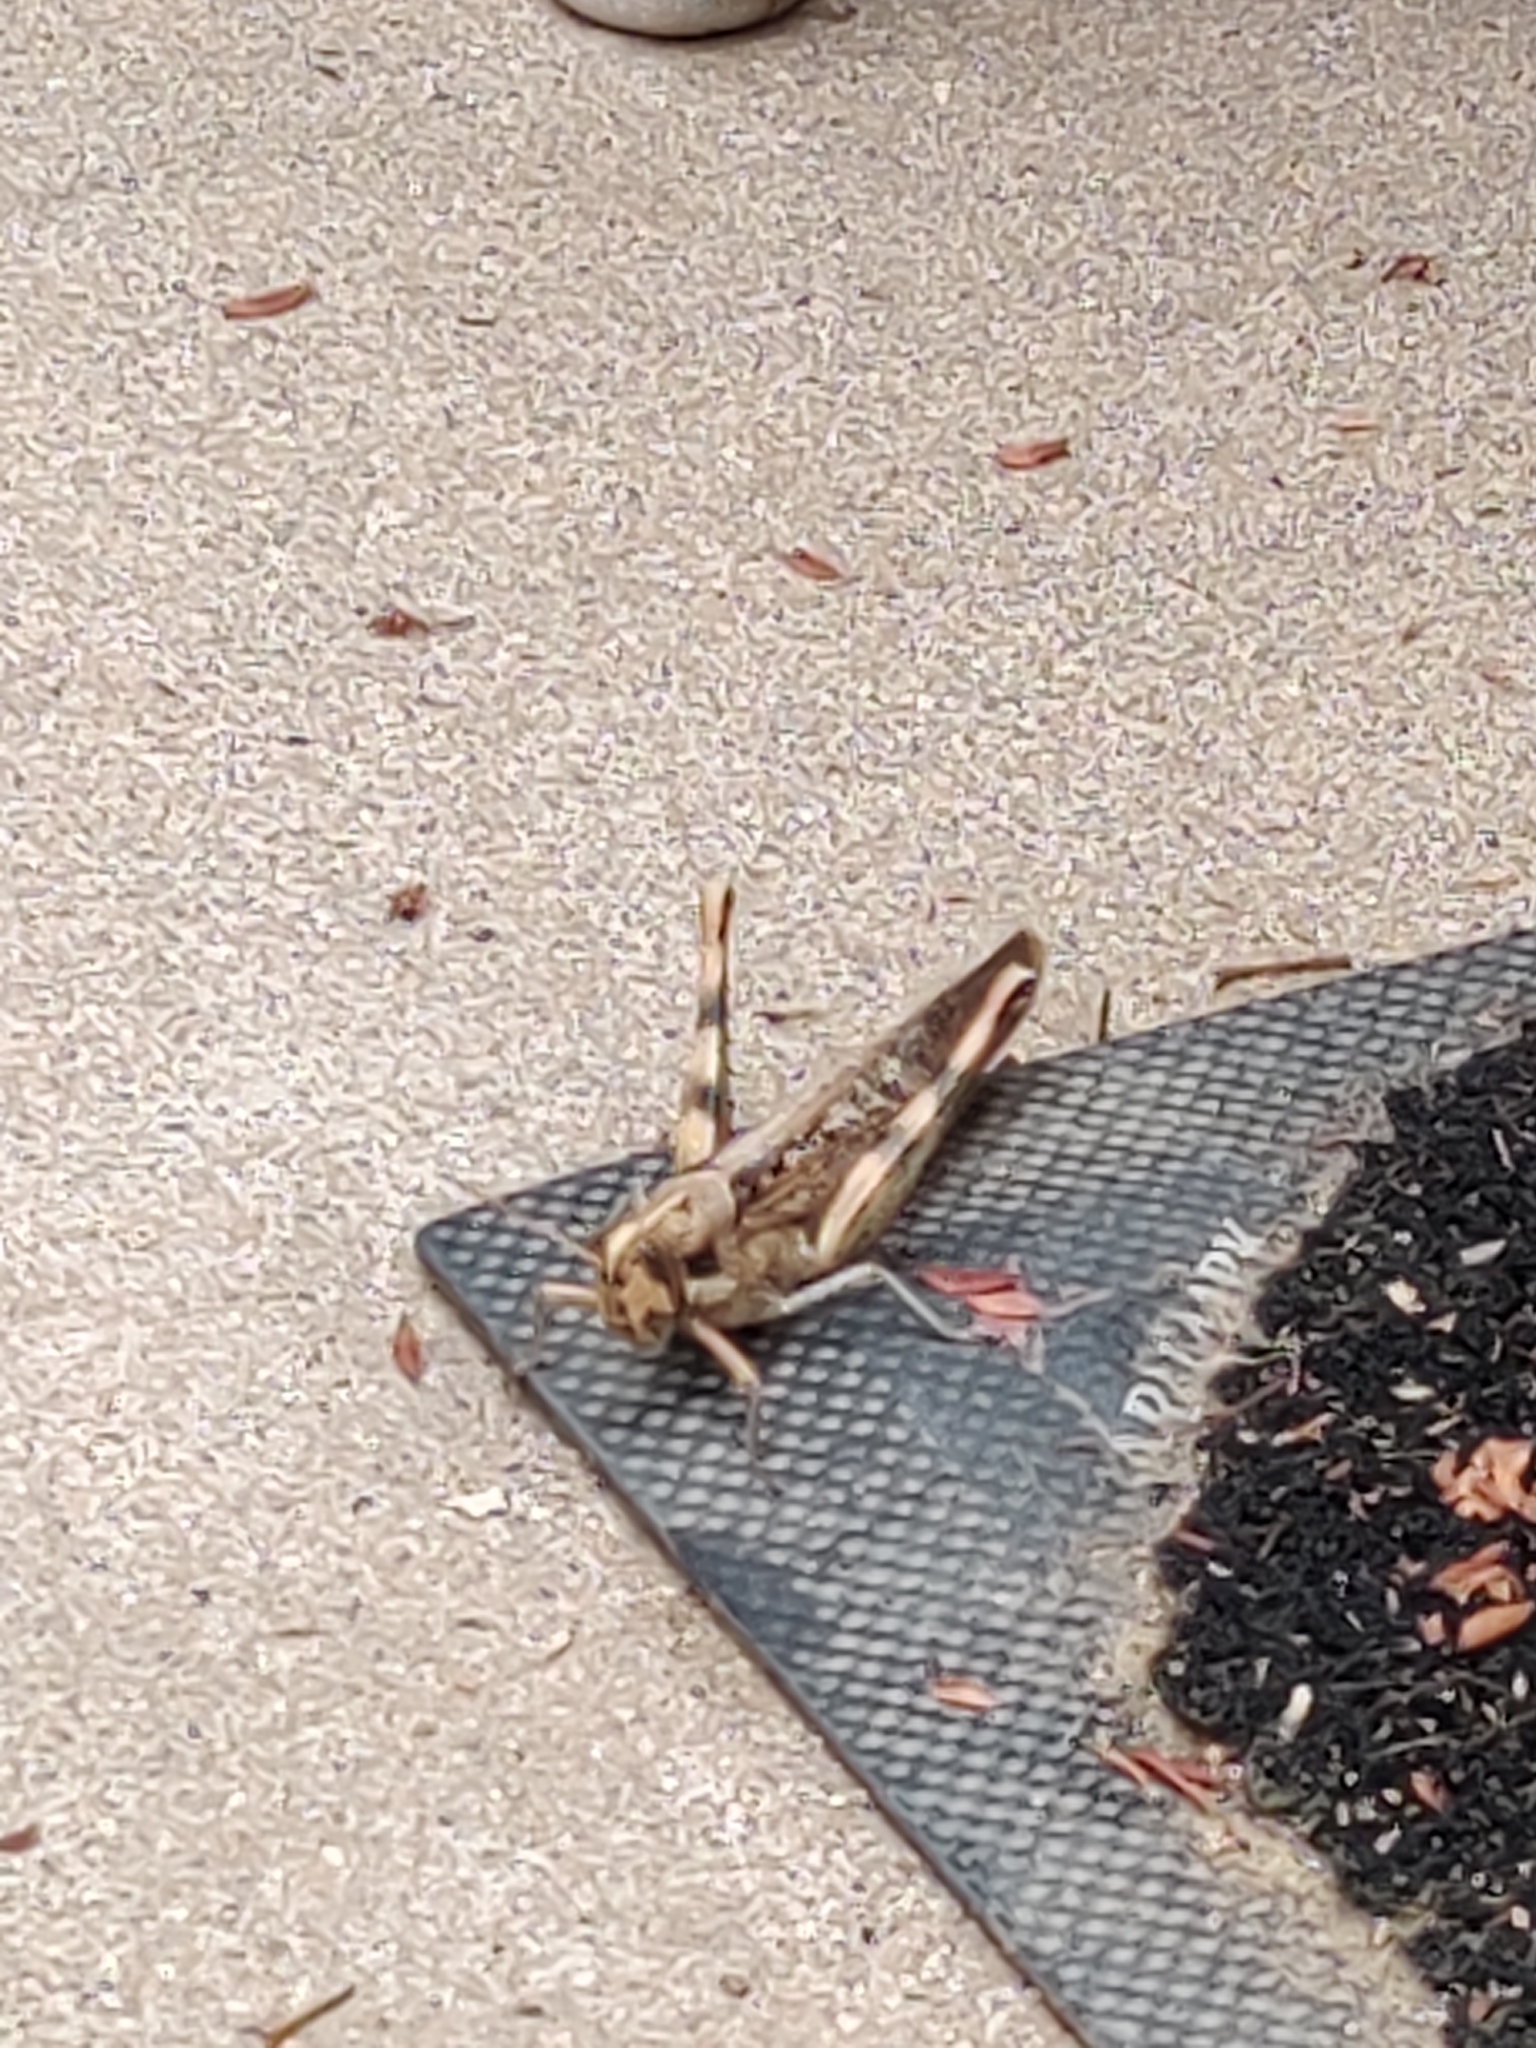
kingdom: Animalia
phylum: Arthropoda
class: Insecta
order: Orthoptera
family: Acrididae
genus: Schistocerca
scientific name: Schistocerca nitens
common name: Vagrant grasshopper
